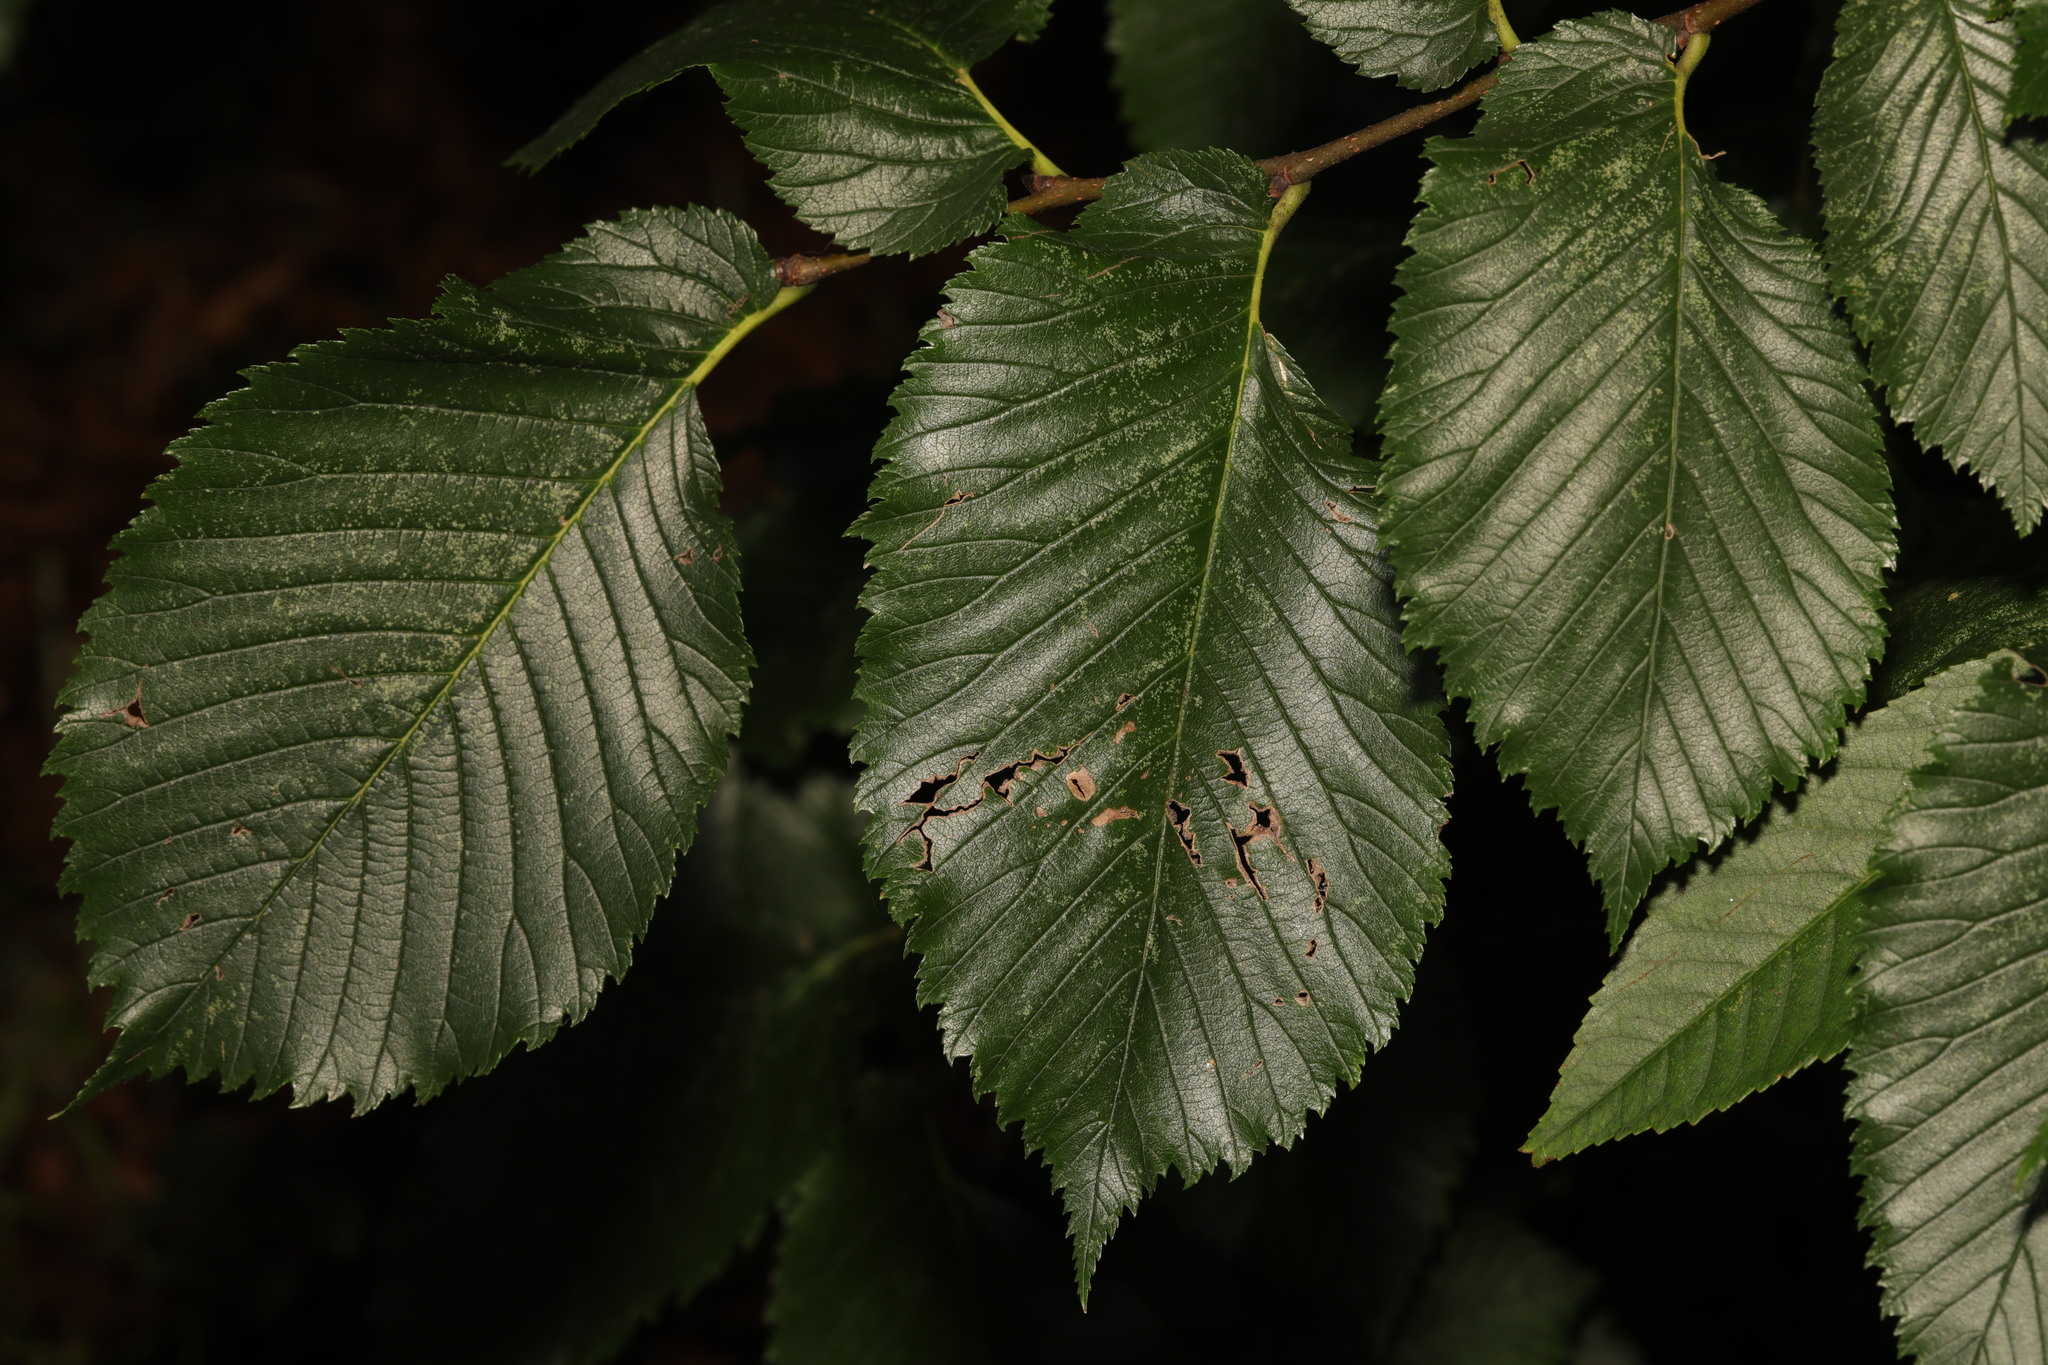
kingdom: Plantae
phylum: Tracheophyta
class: Magnoliopsida
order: Rosales
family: Ulmaceae
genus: Ulmus
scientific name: Ulmus glabra
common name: Wych elm
